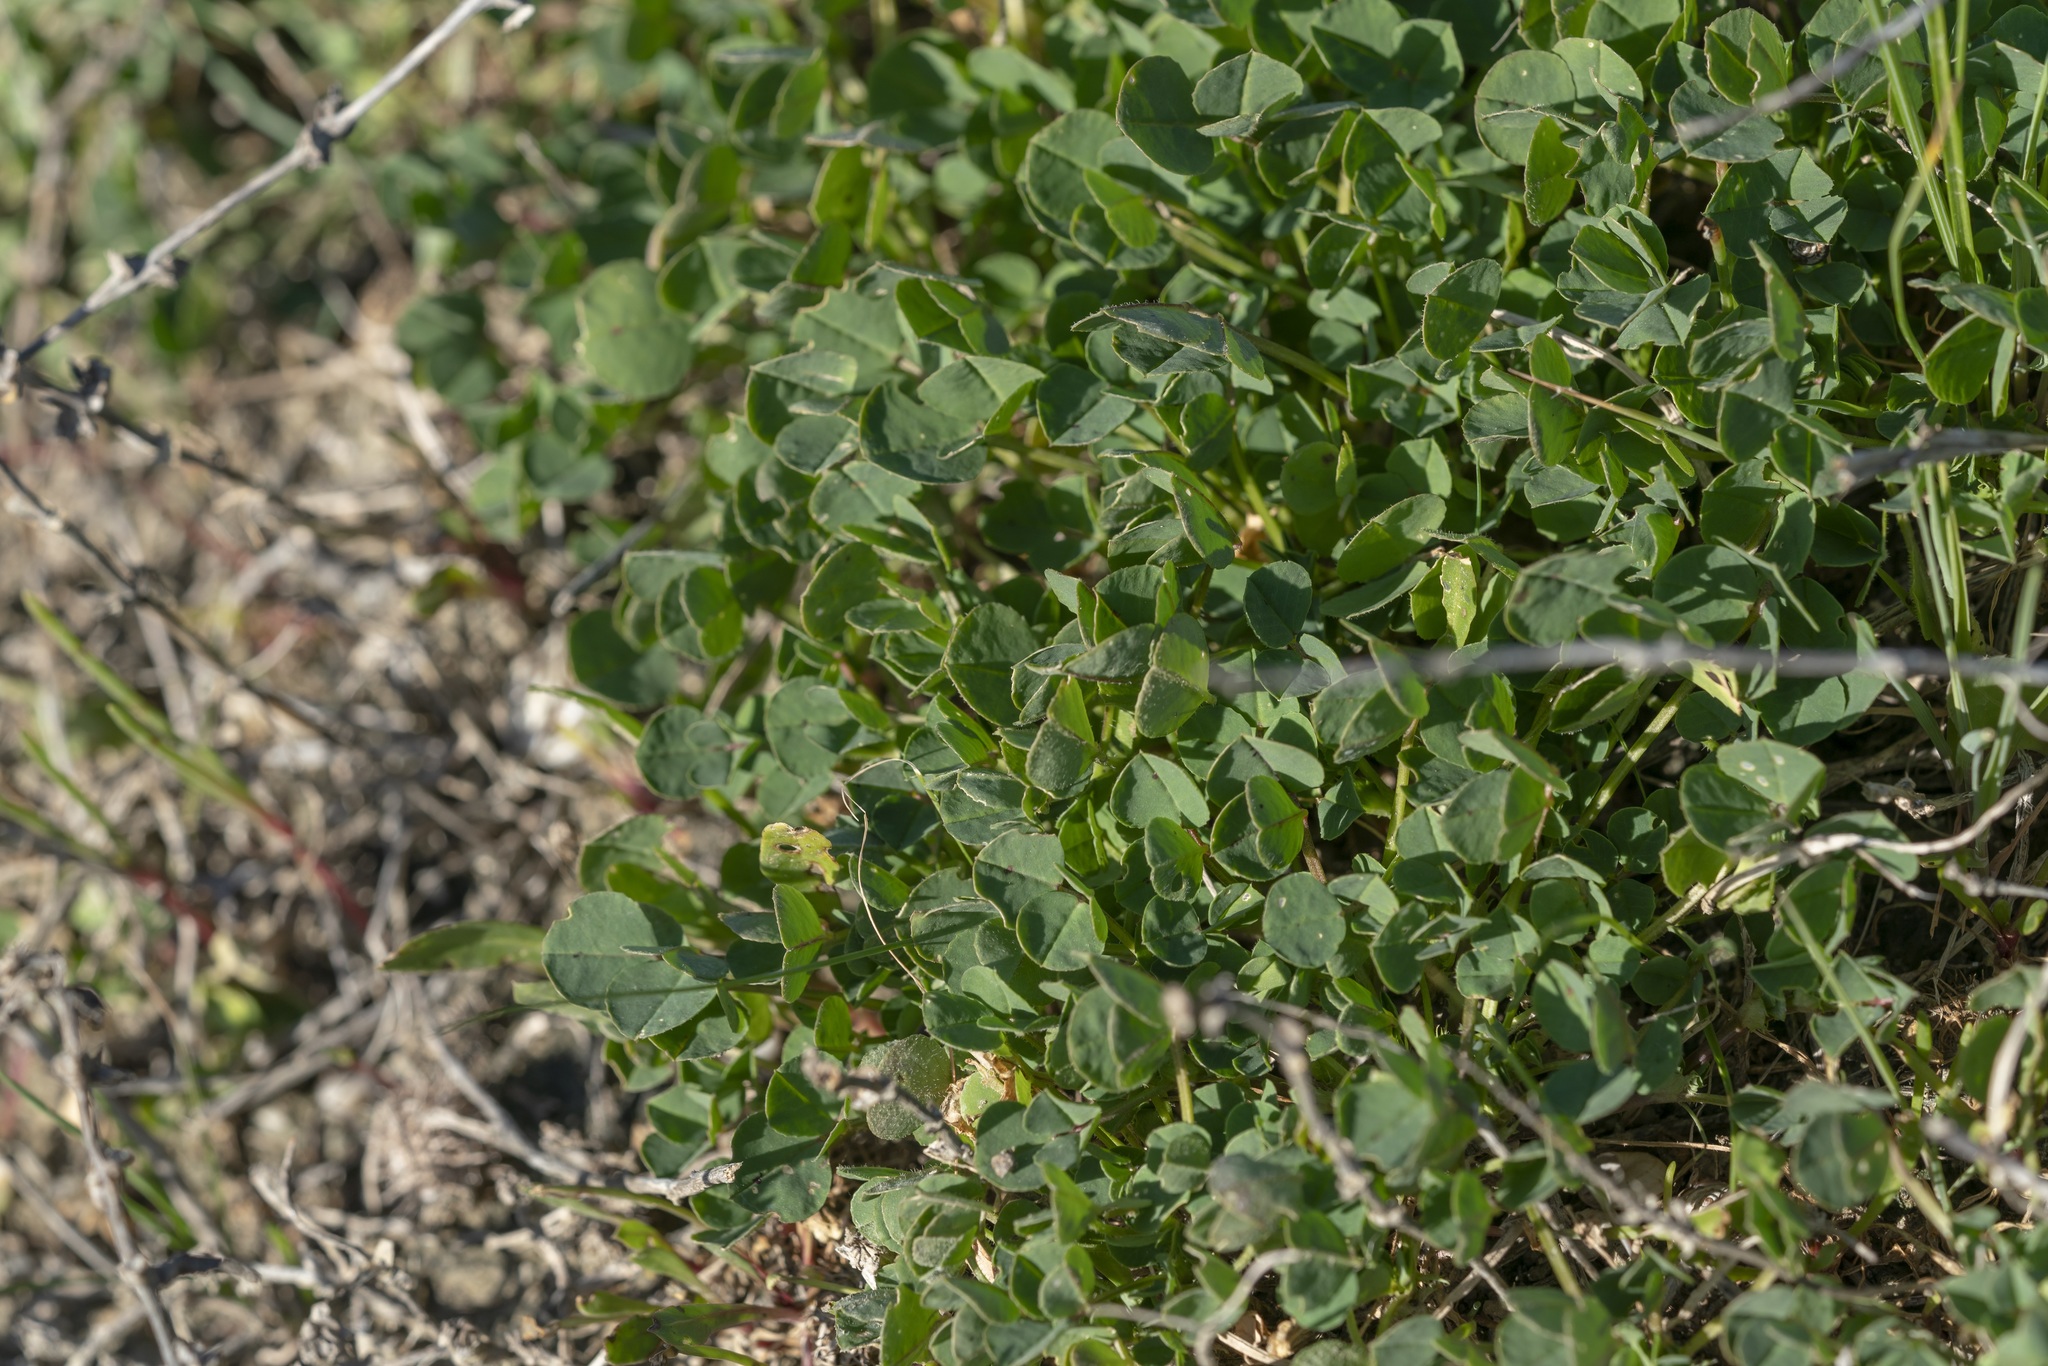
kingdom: Plantae
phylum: Tracheophyta
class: Magnoliopsida
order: Fabales
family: Fabaceae
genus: Medicago
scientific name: Medicago ciliaris
